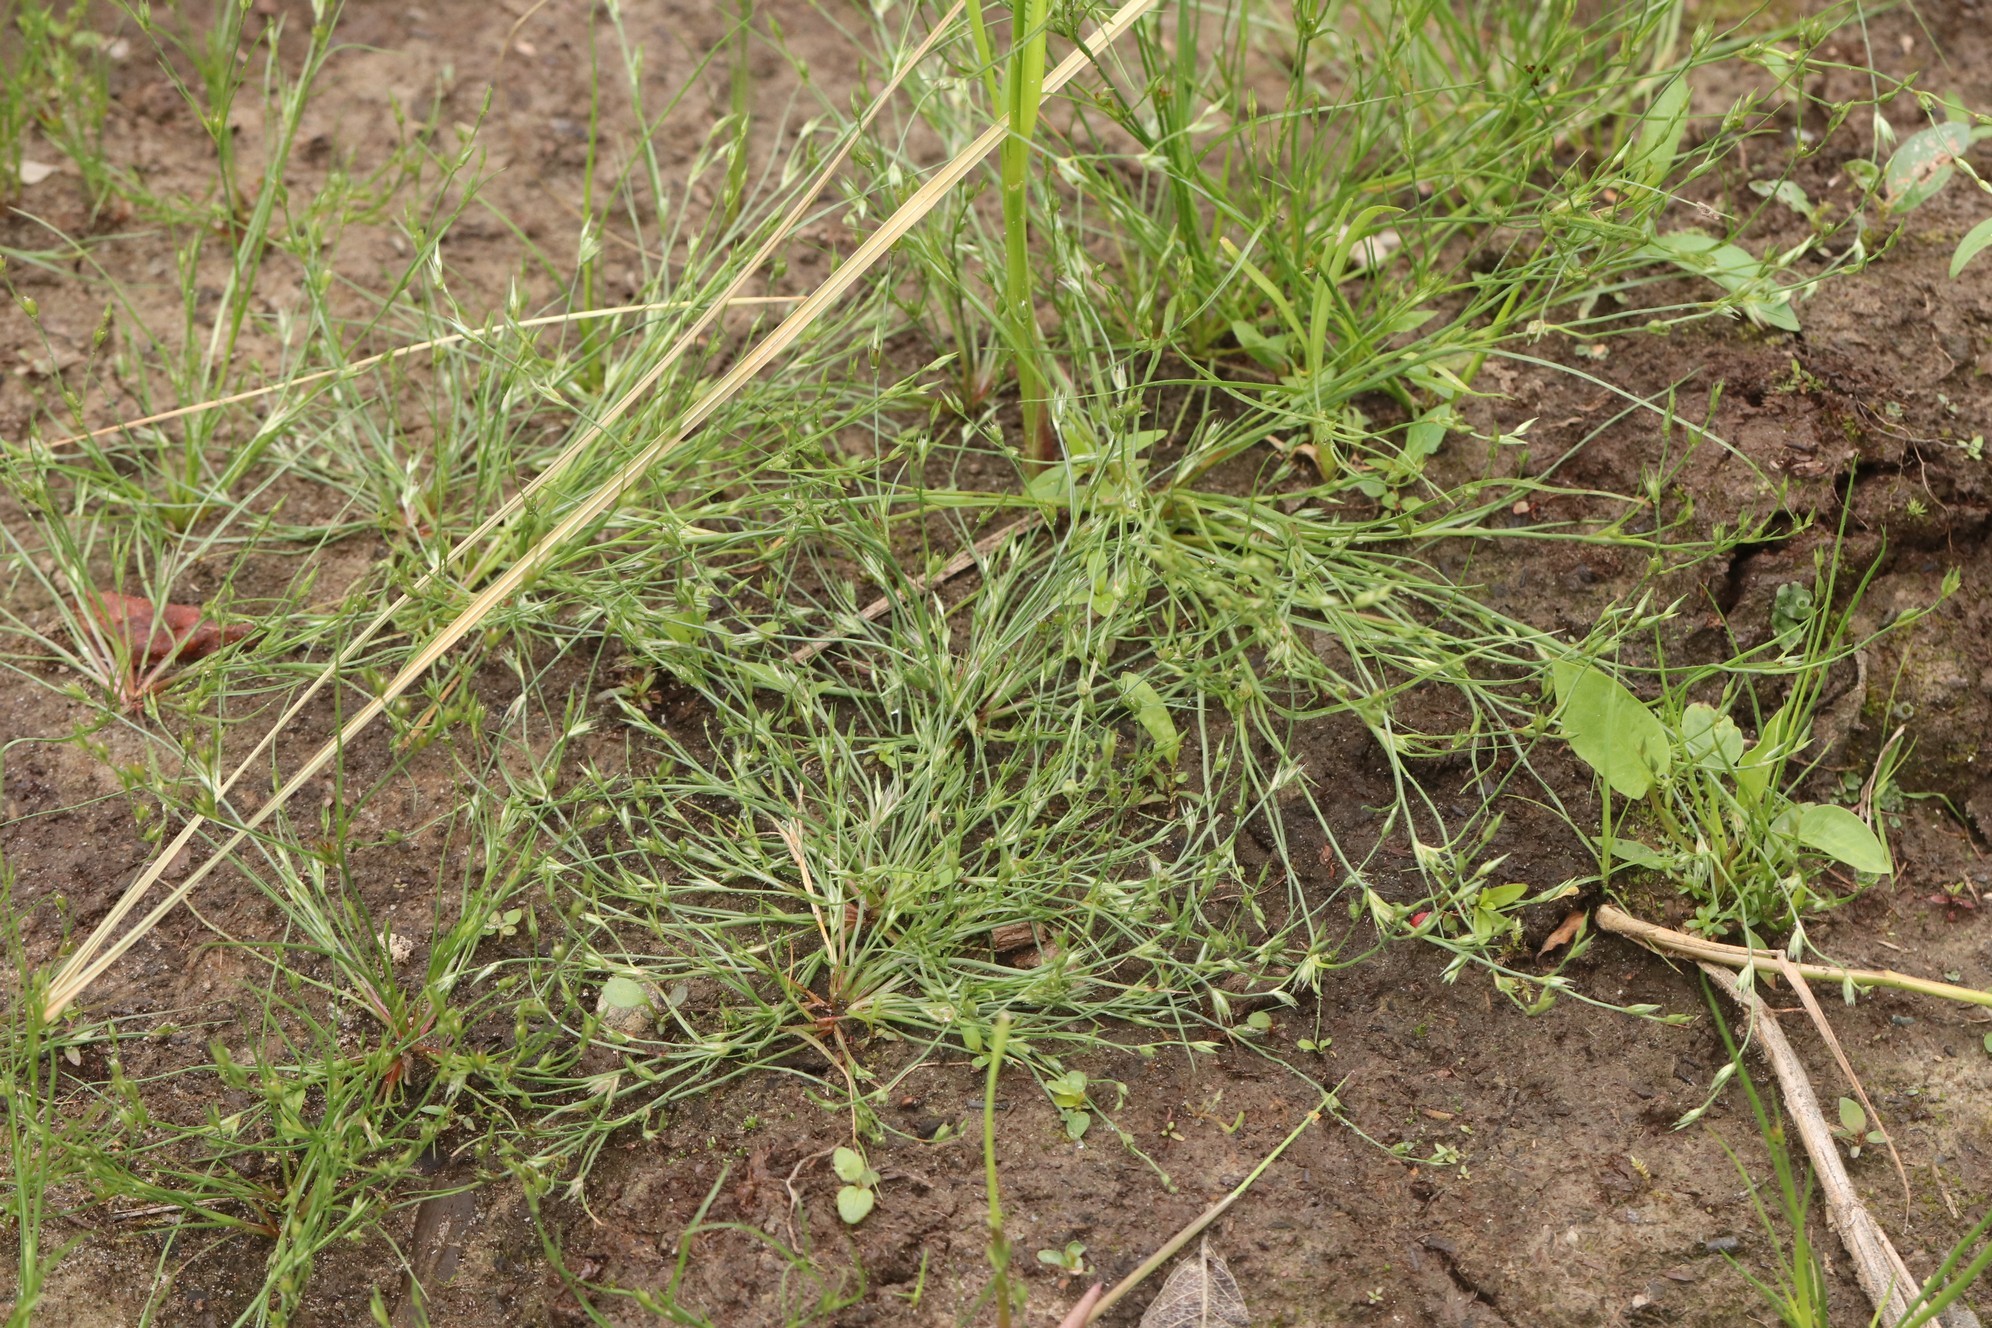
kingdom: Plantae
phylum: Tracheophyta
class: Liliopsida
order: Poales
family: Juncaceae
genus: Juncus
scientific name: Juncus bufonius
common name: Toad rush
